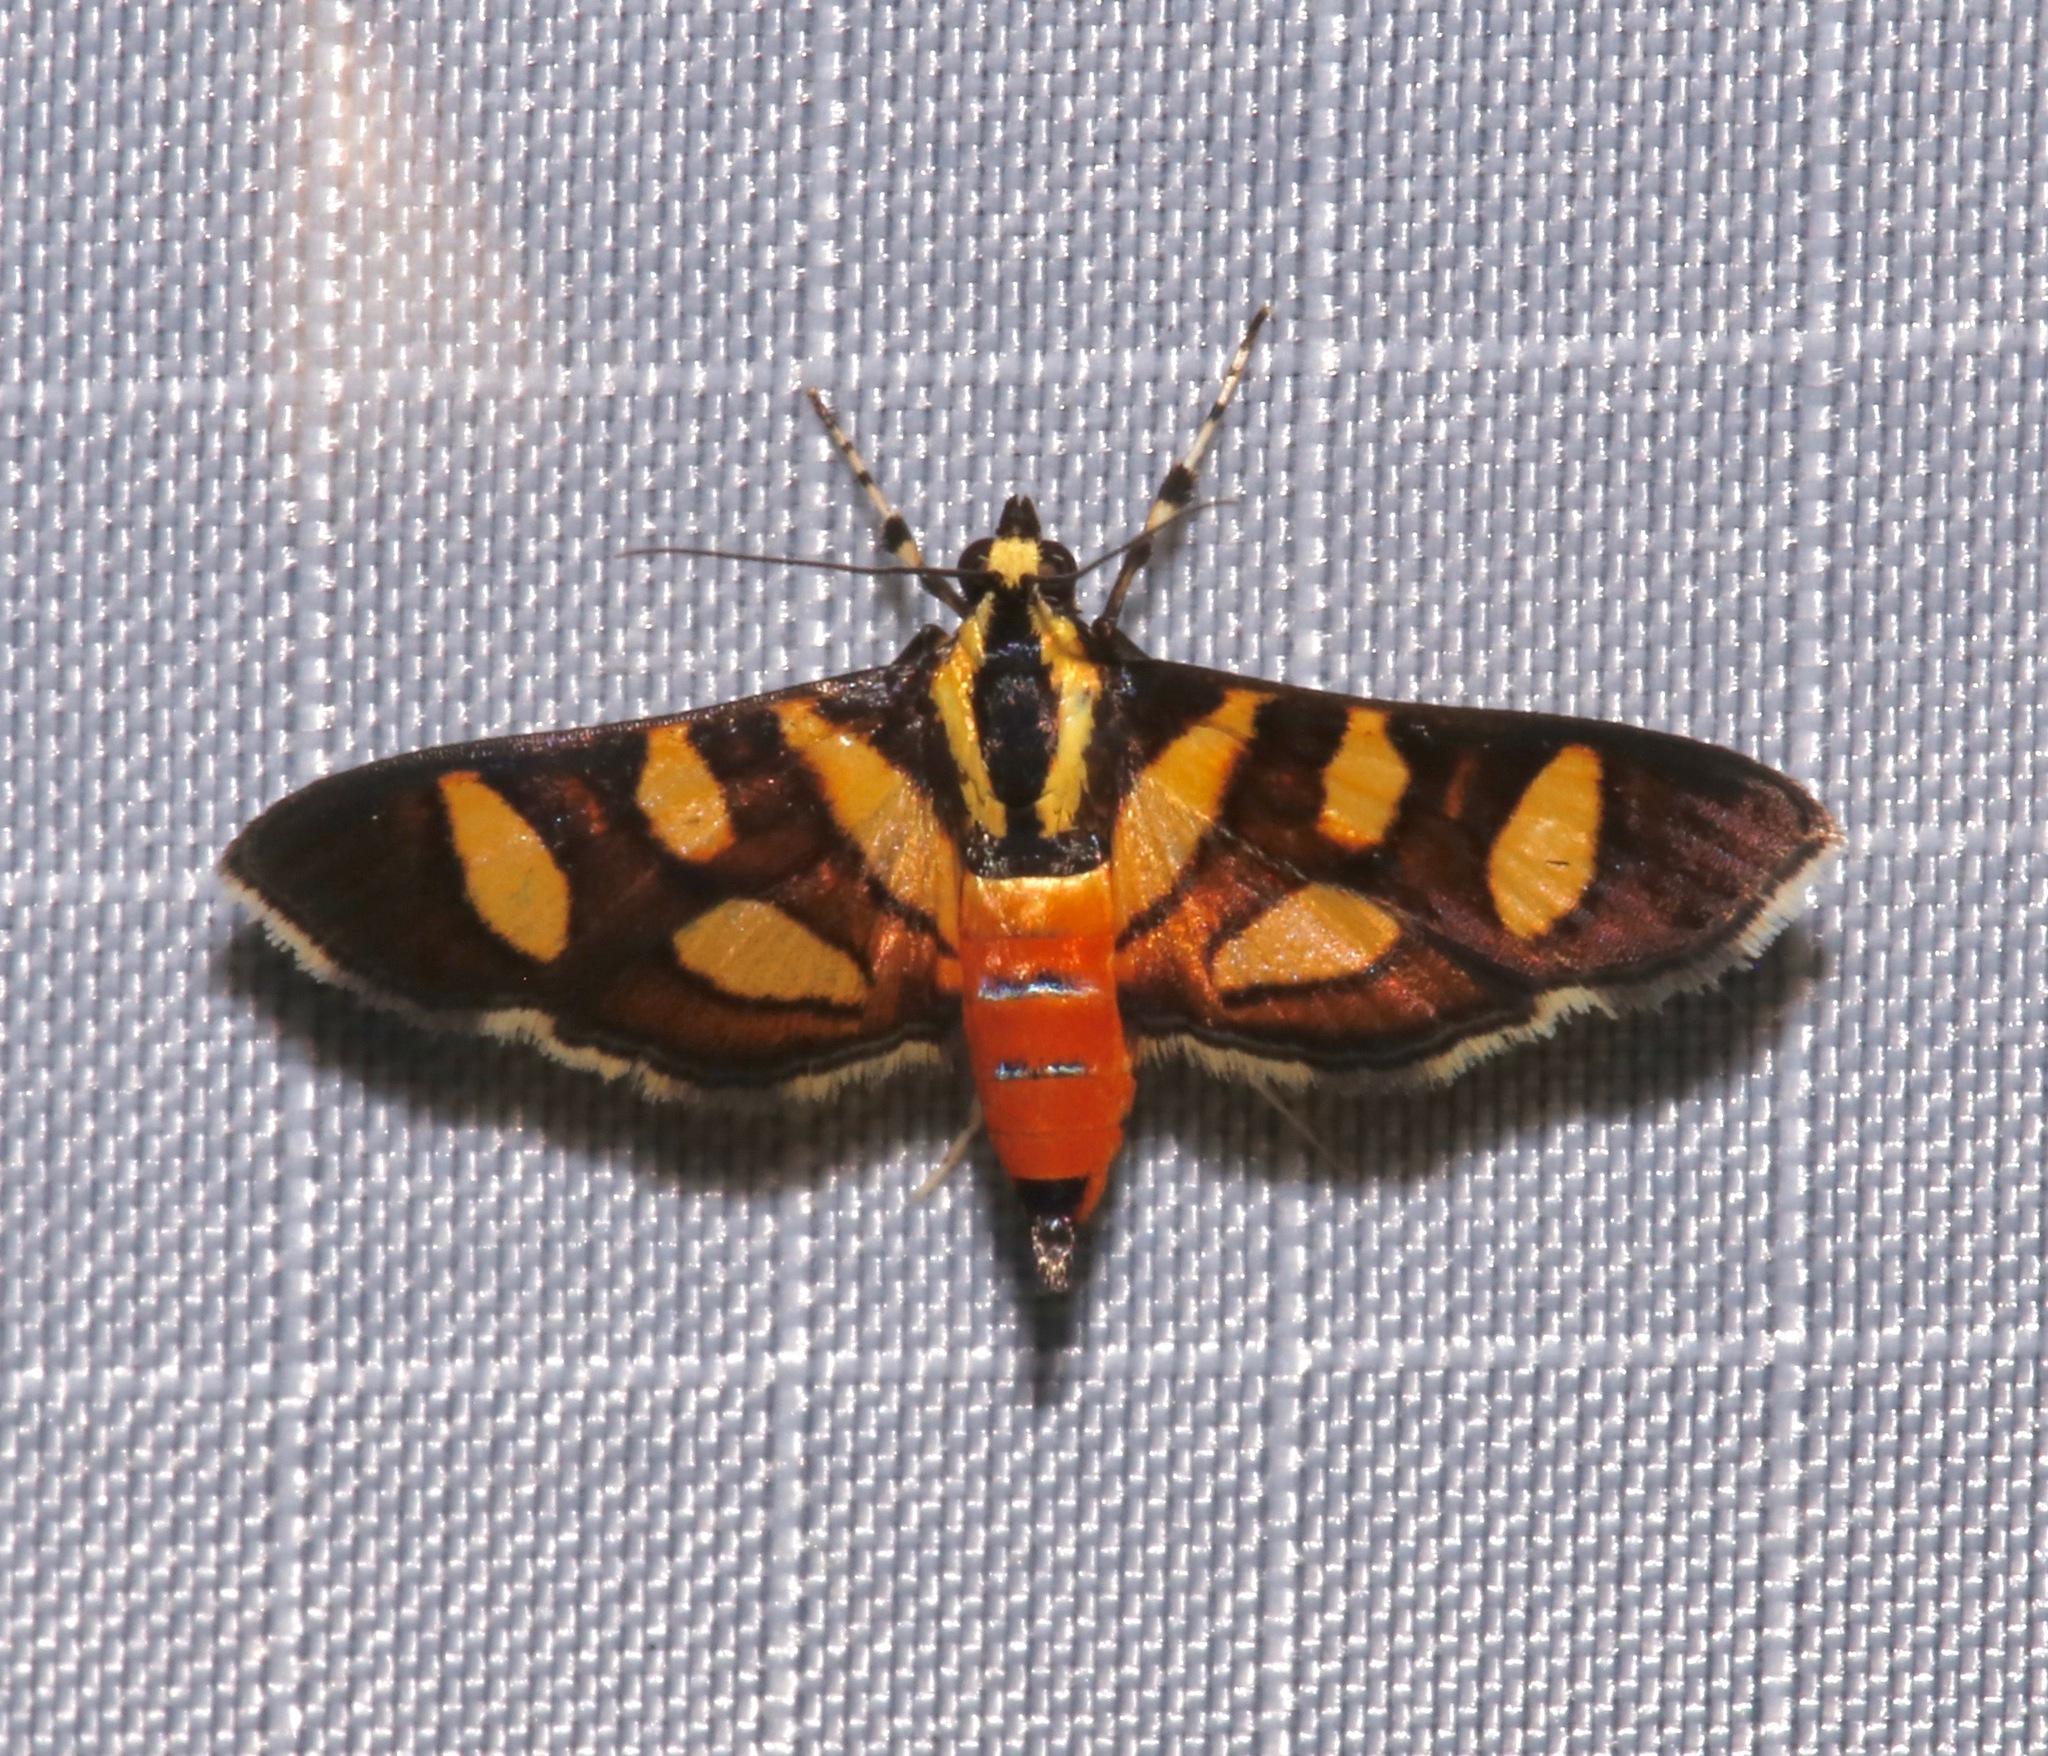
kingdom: Animalia
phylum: Arthropoda
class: Insecta
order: Lepidoptera
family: Crambidae
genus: Syngamia
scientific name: Syngamia florella
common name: Orange-spotted flower moth
